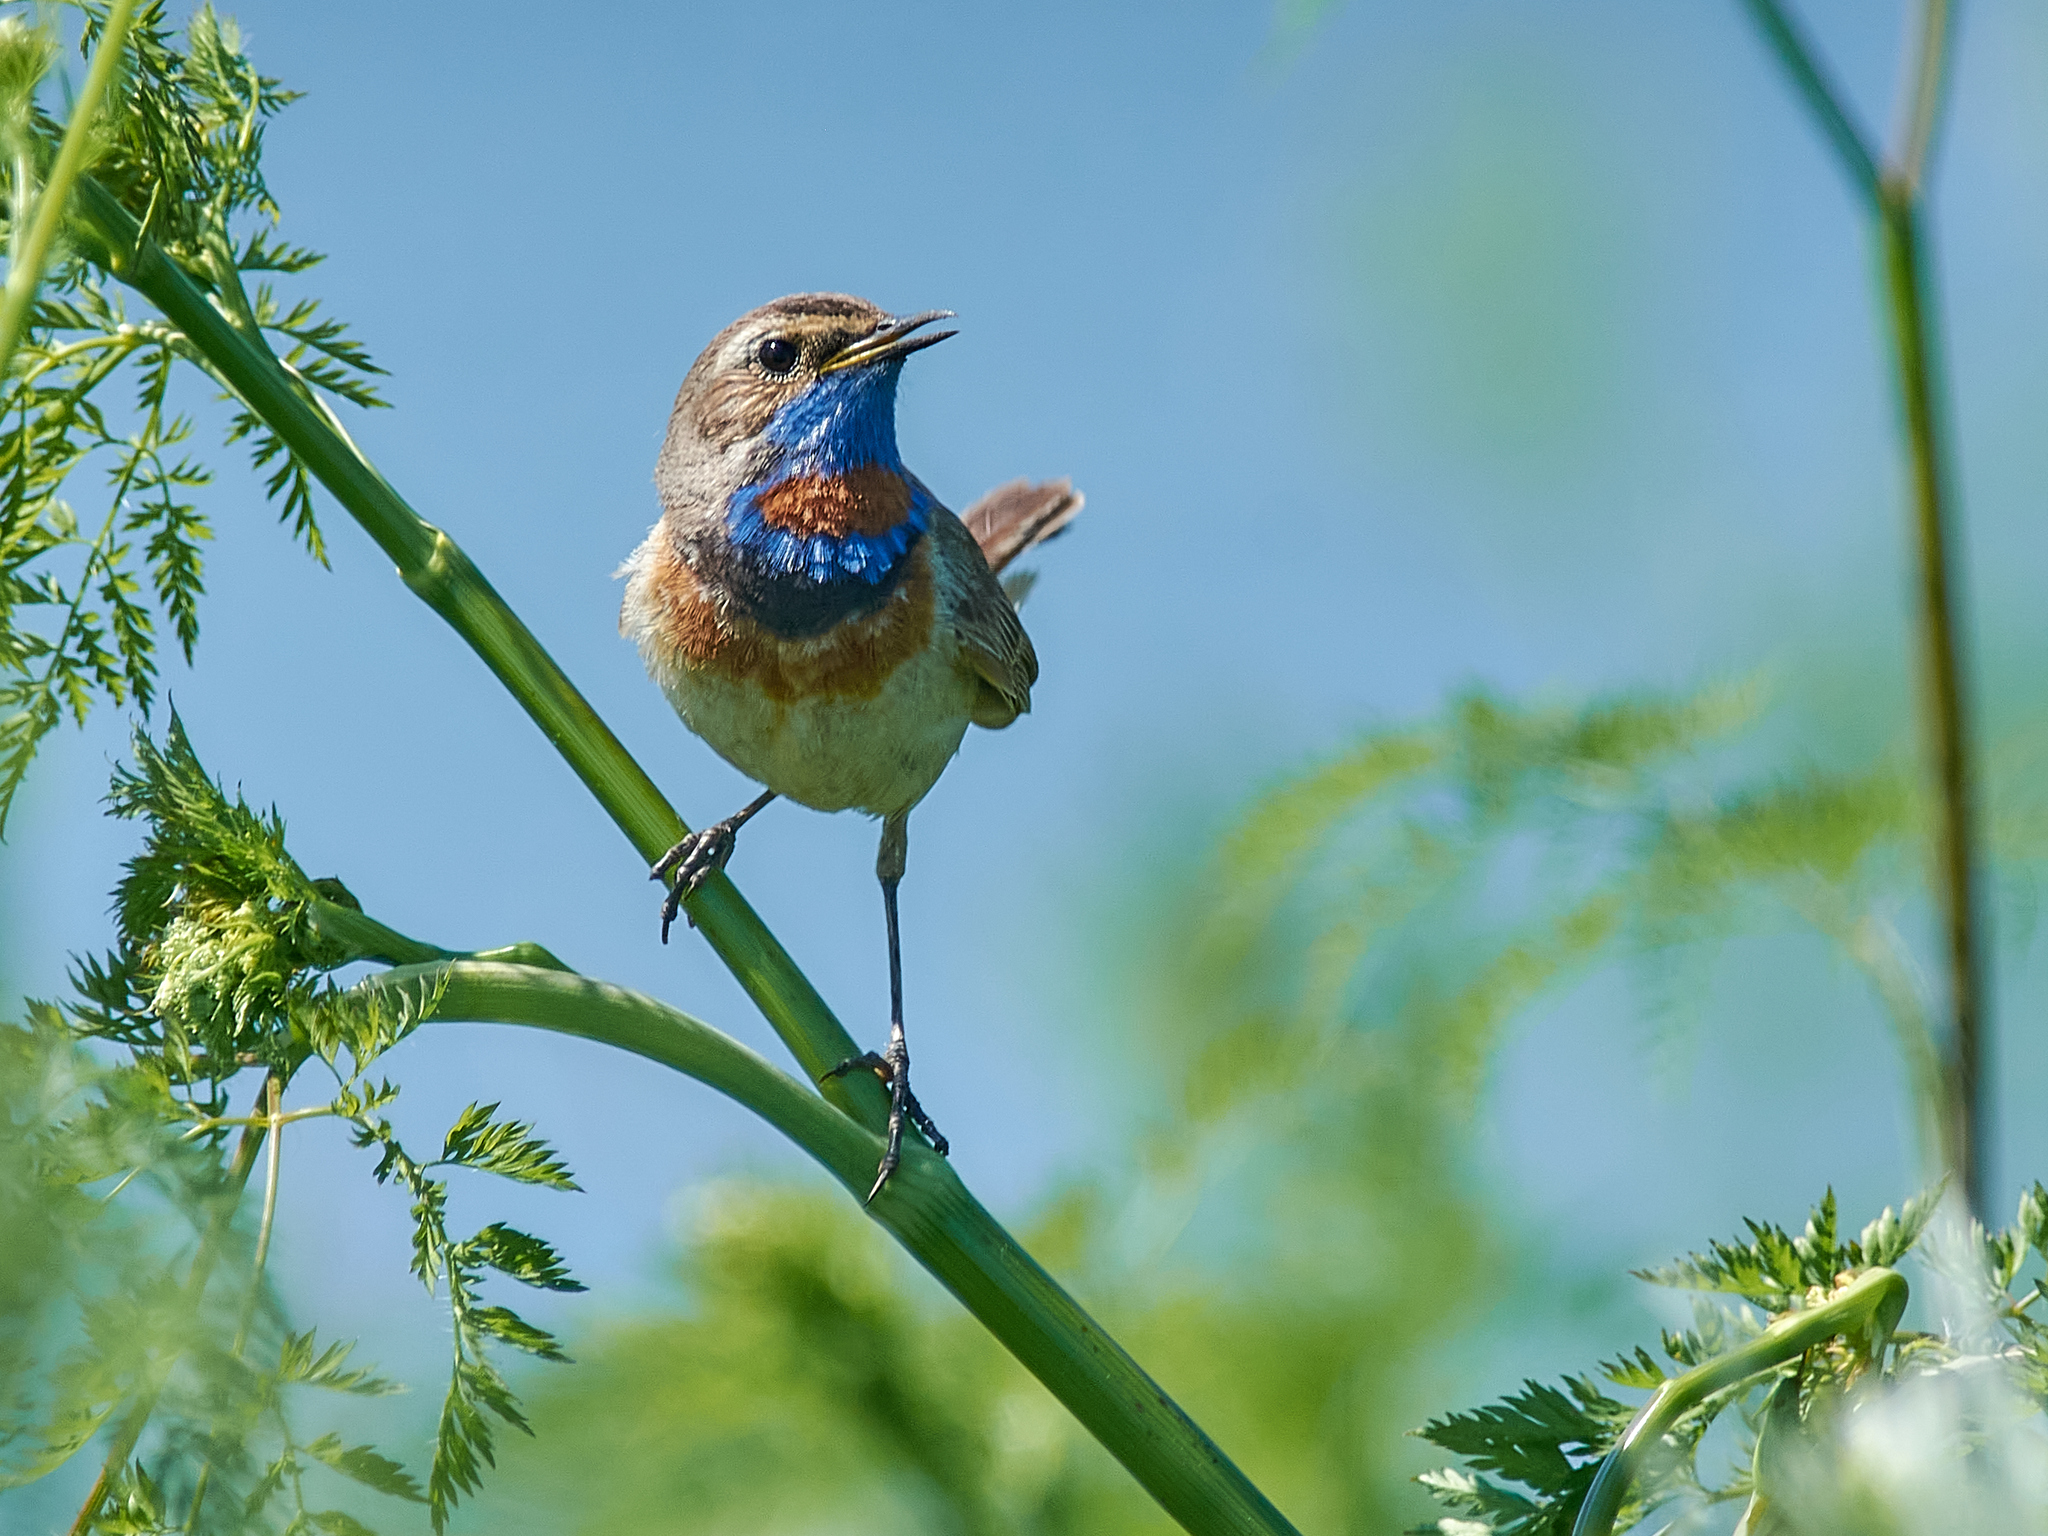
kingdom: Animalia
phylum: Chordata
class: Aves
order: Passeriformes
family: Muscicapidae
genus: Luscinia
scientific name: Luscinia svecica
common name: Bluethroat
